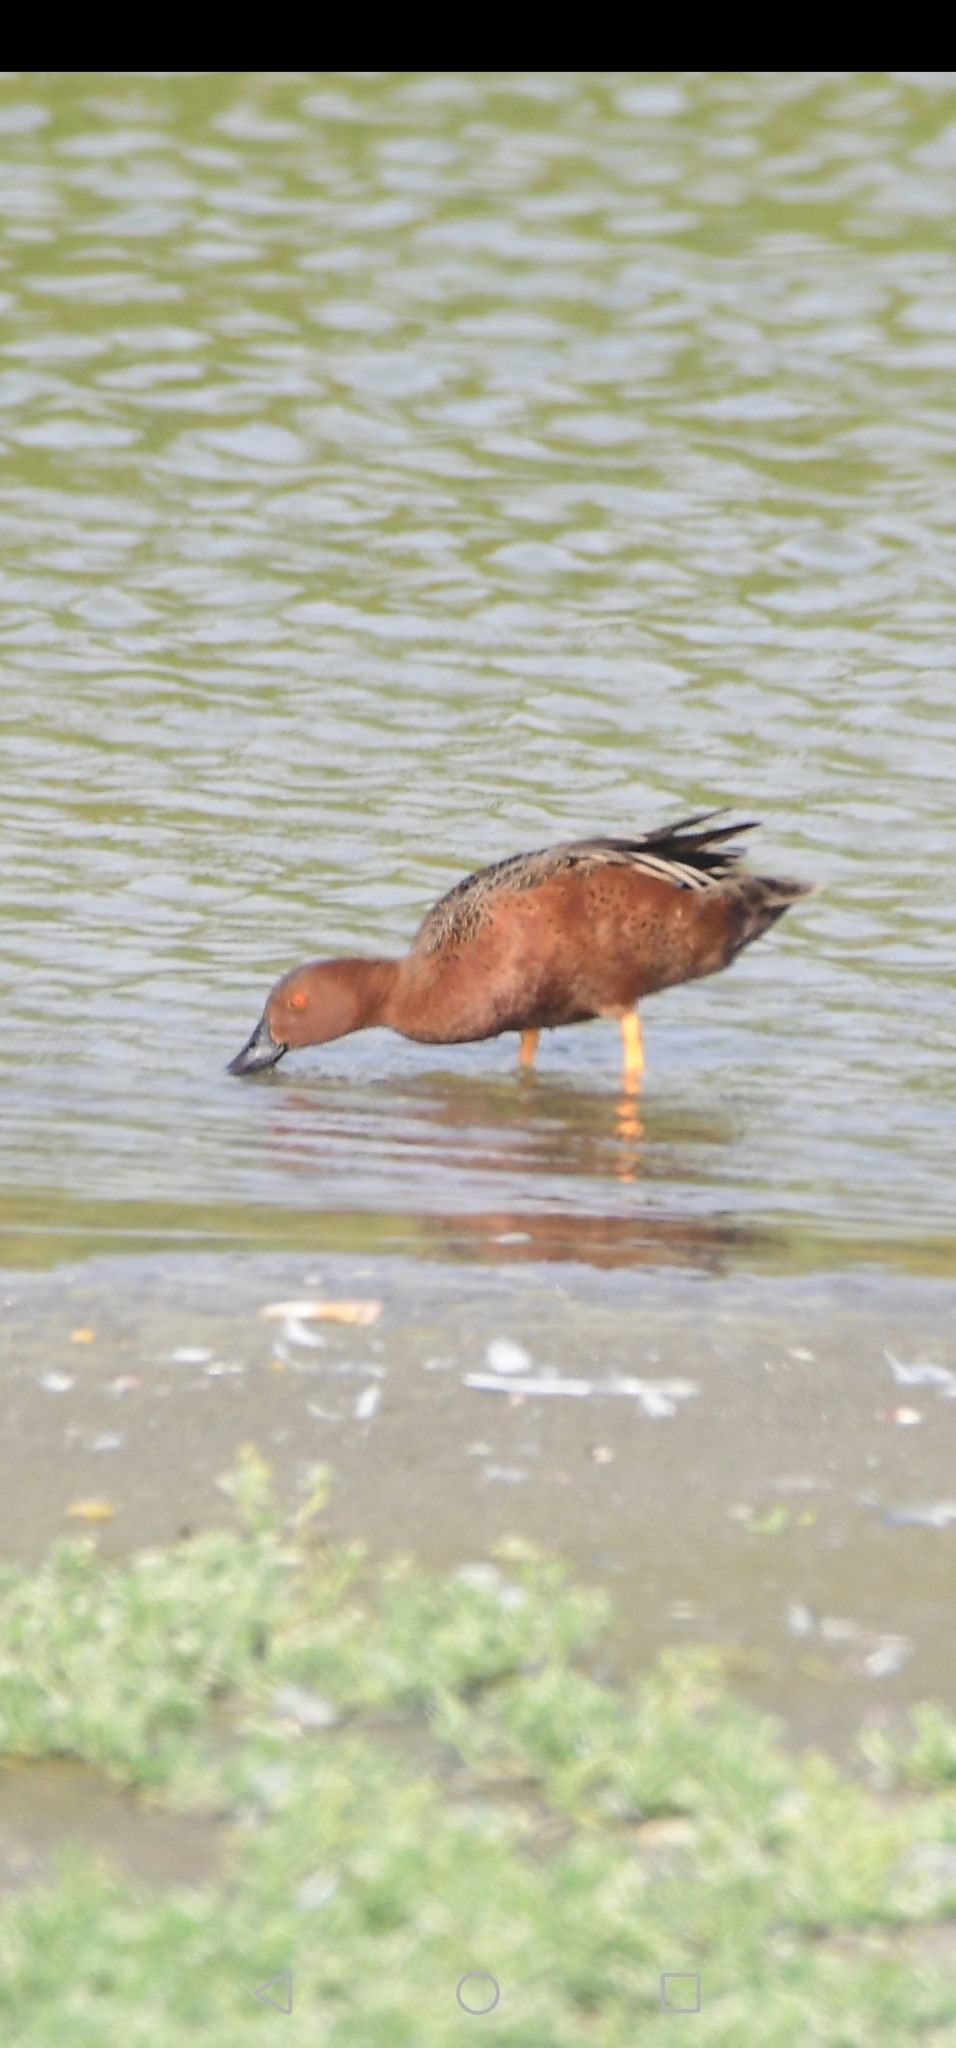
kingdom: Animalia
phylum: Chordata
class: Aves
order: Anseriformes
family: Anatidae
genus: Spatula
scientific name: Spatula cyanoptera
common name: Cinnamon teal
